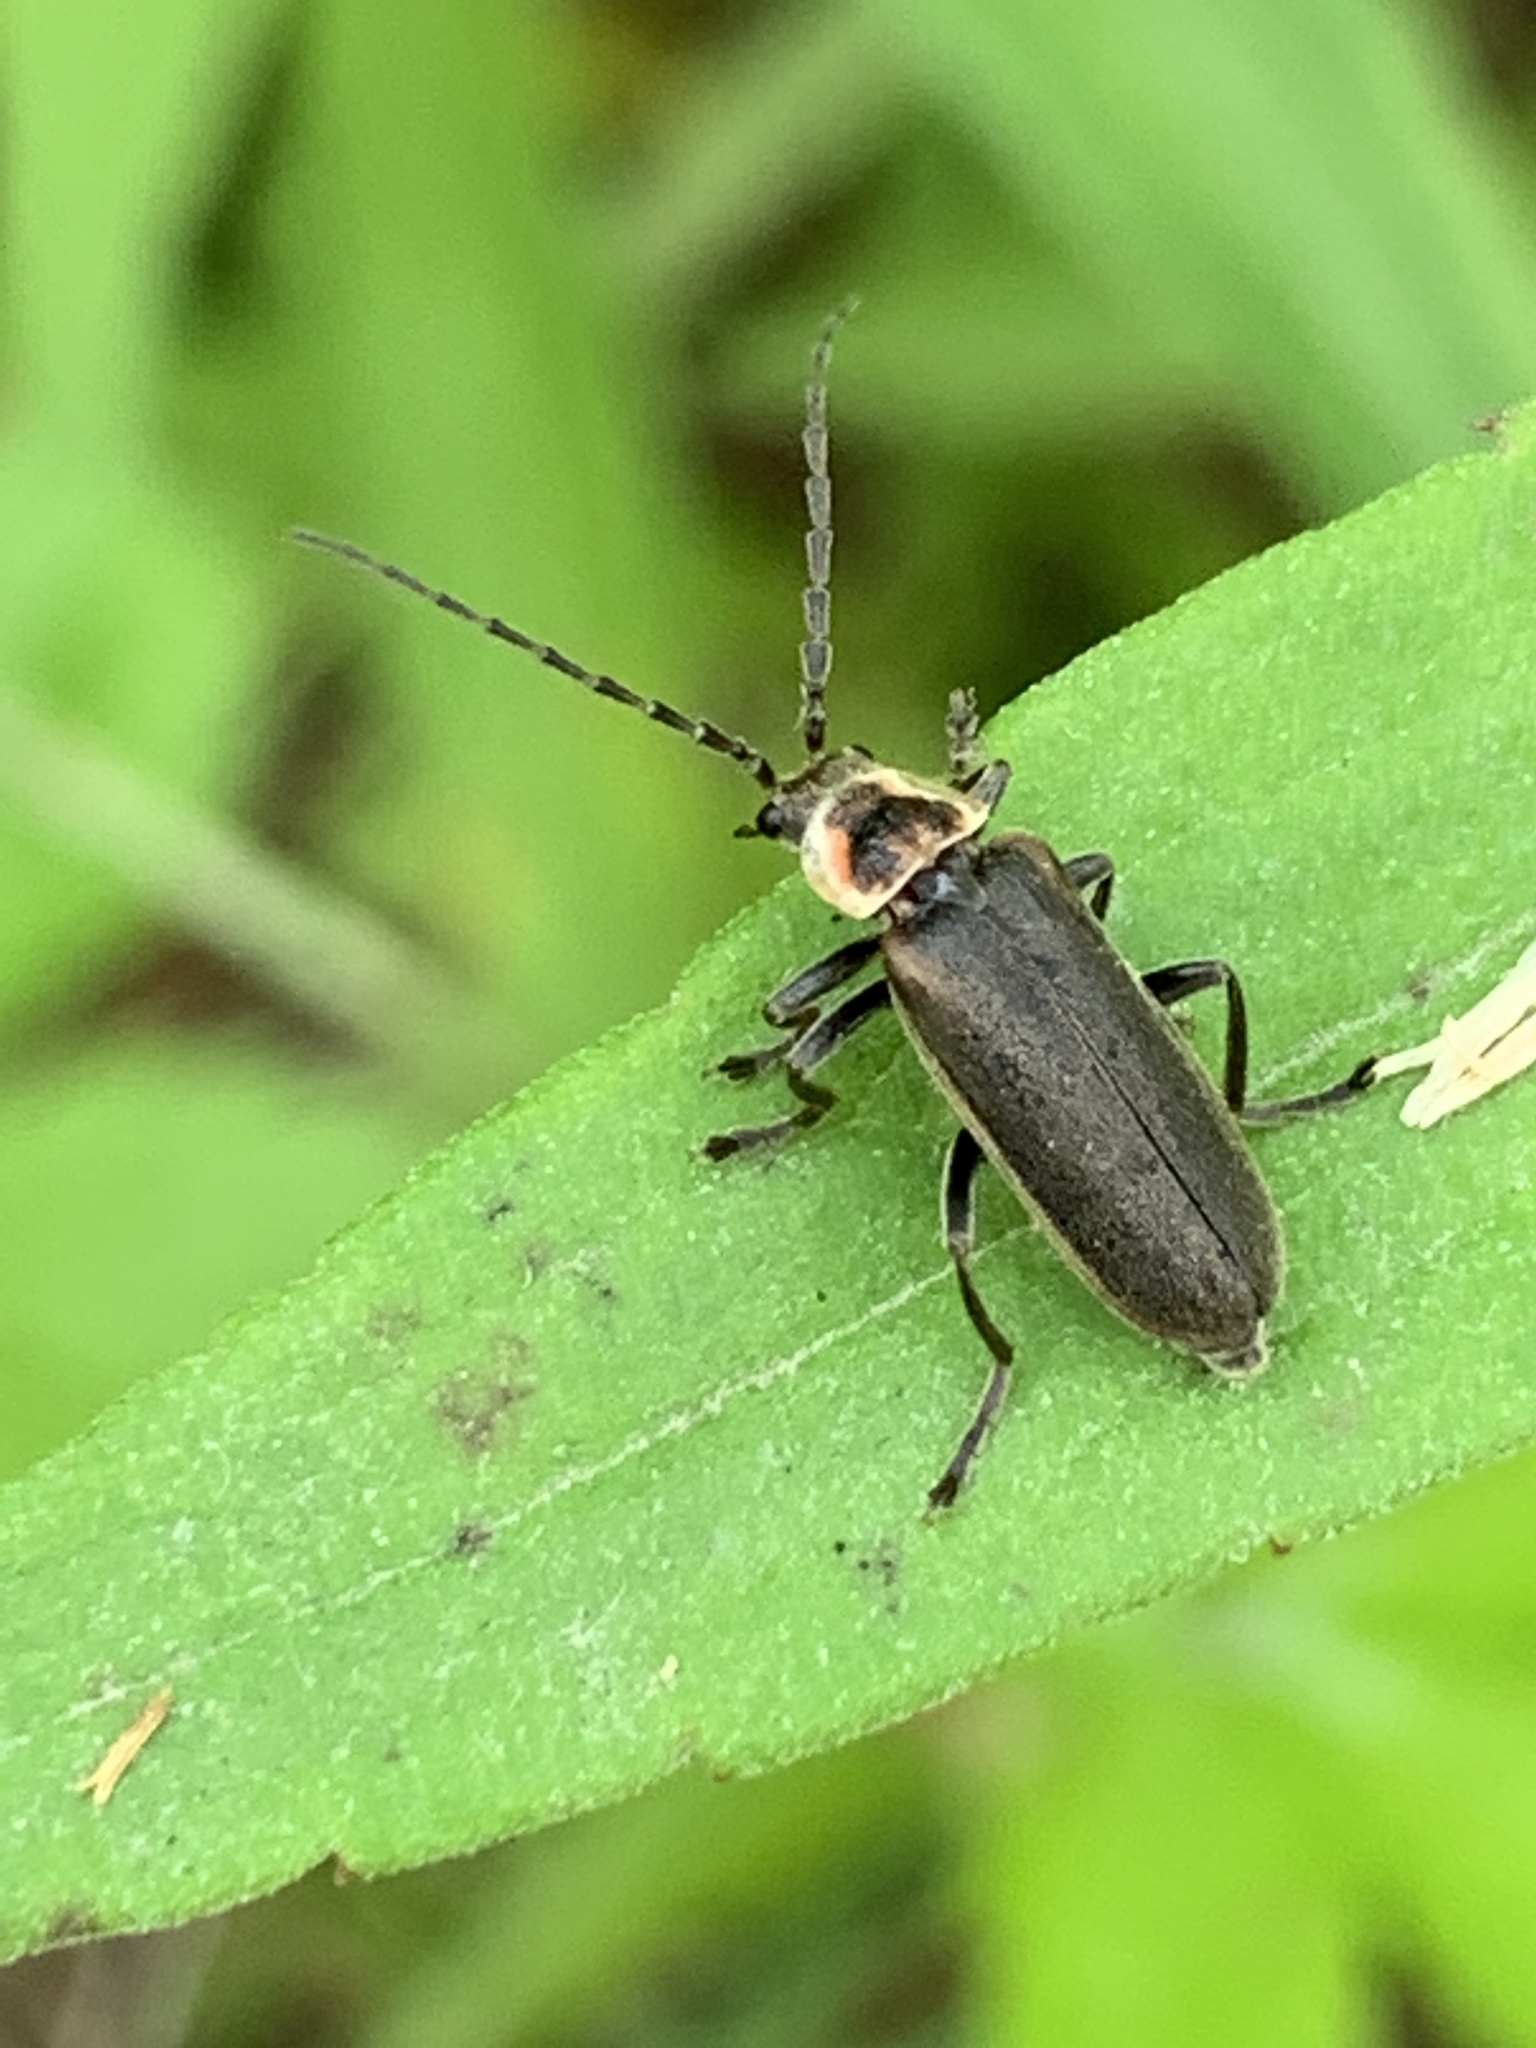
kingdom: Animalia
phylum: Arthropoda
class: Insecta
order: Coleoptera
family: Cantharidae
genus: Atalantycha
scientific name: Atalantycha dentigera
